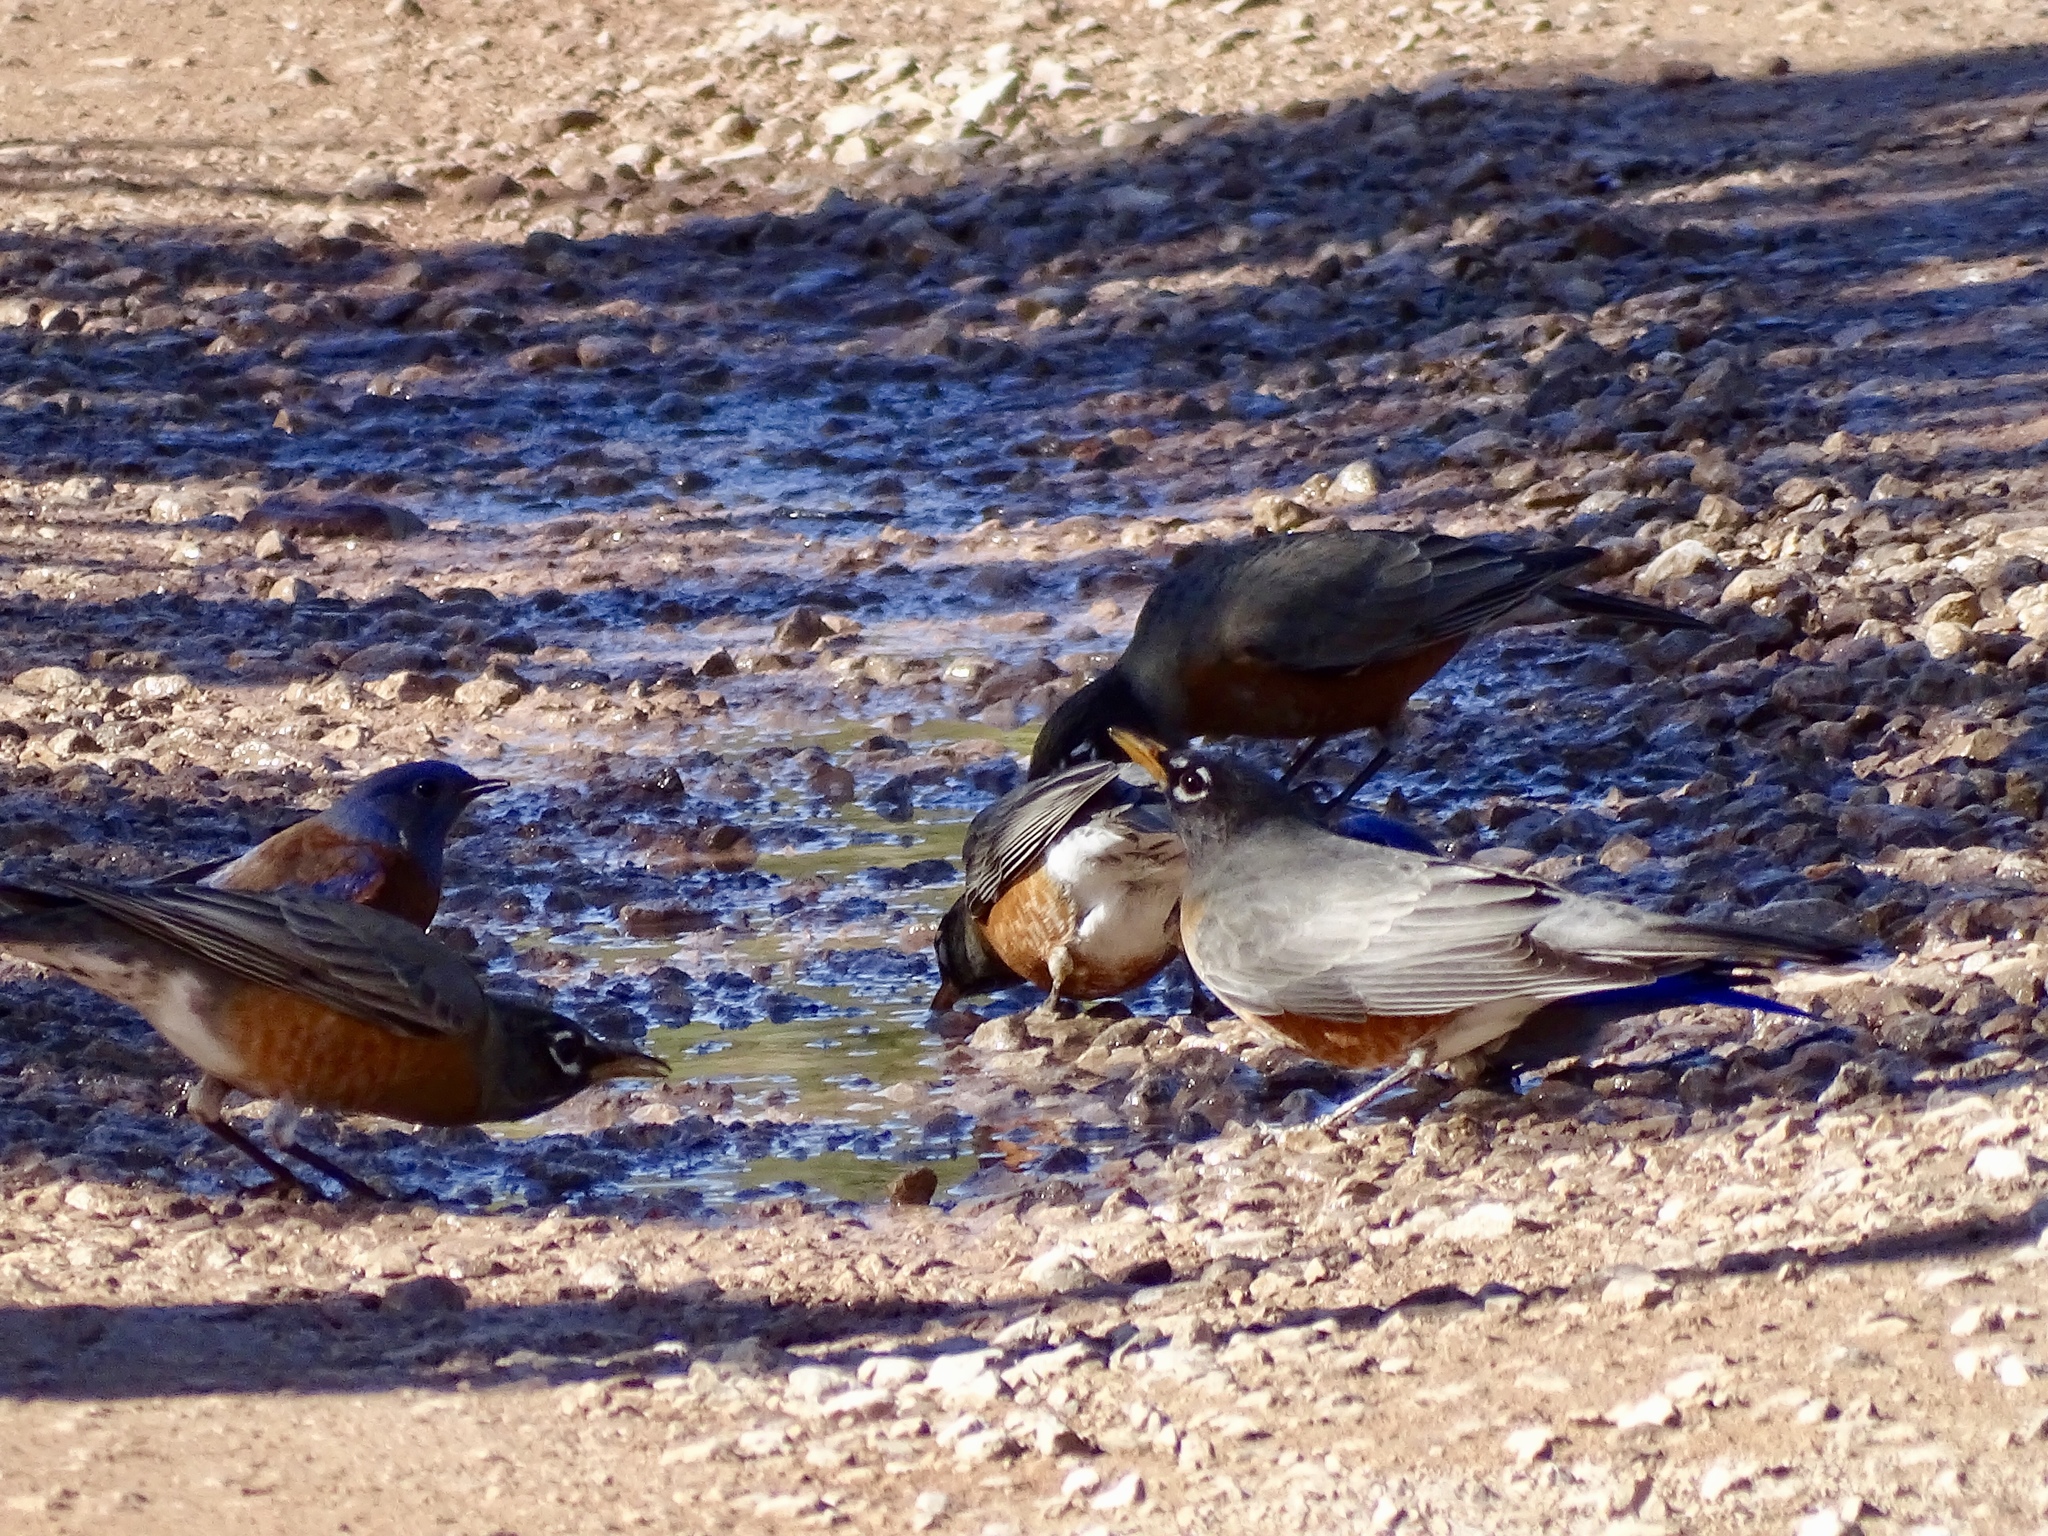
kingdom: Animalia
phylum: Chordata
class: Aves
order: Passeriformes
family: Turdidae
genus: Turdus
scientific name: Turdus migratorius
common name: American robin
